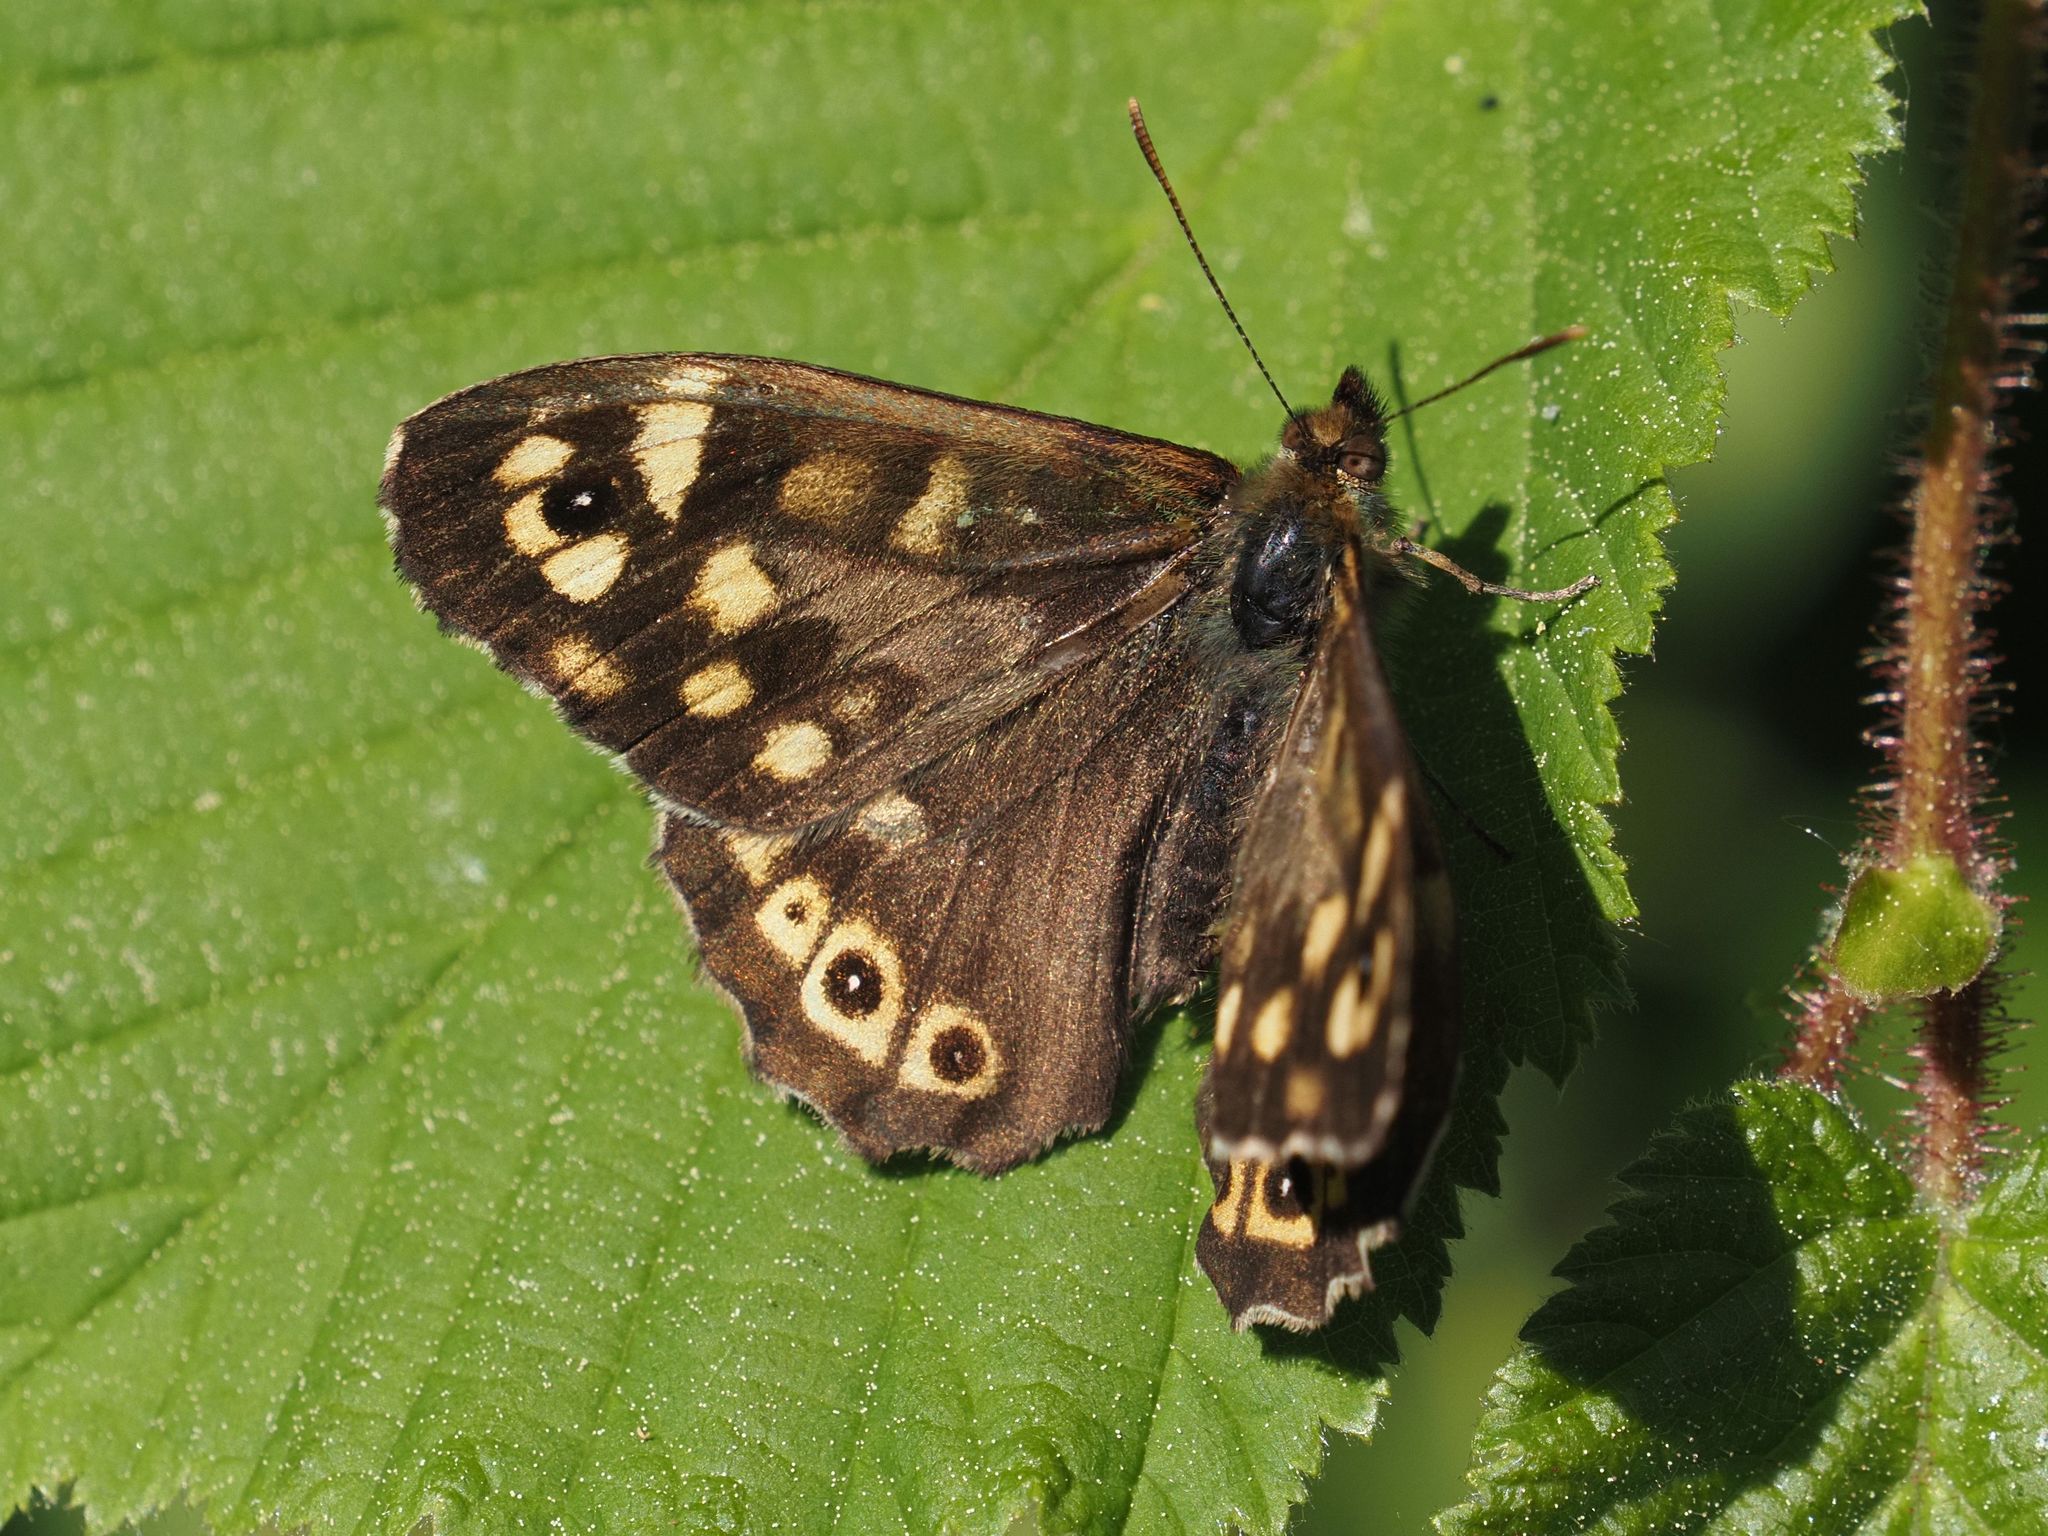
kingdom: Animalia
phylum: Arthropoda
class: Insecta
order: Lepidoptera
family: Nymphalidae
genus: Pararge
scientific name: Pararge aegeria
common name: Speckled wood
